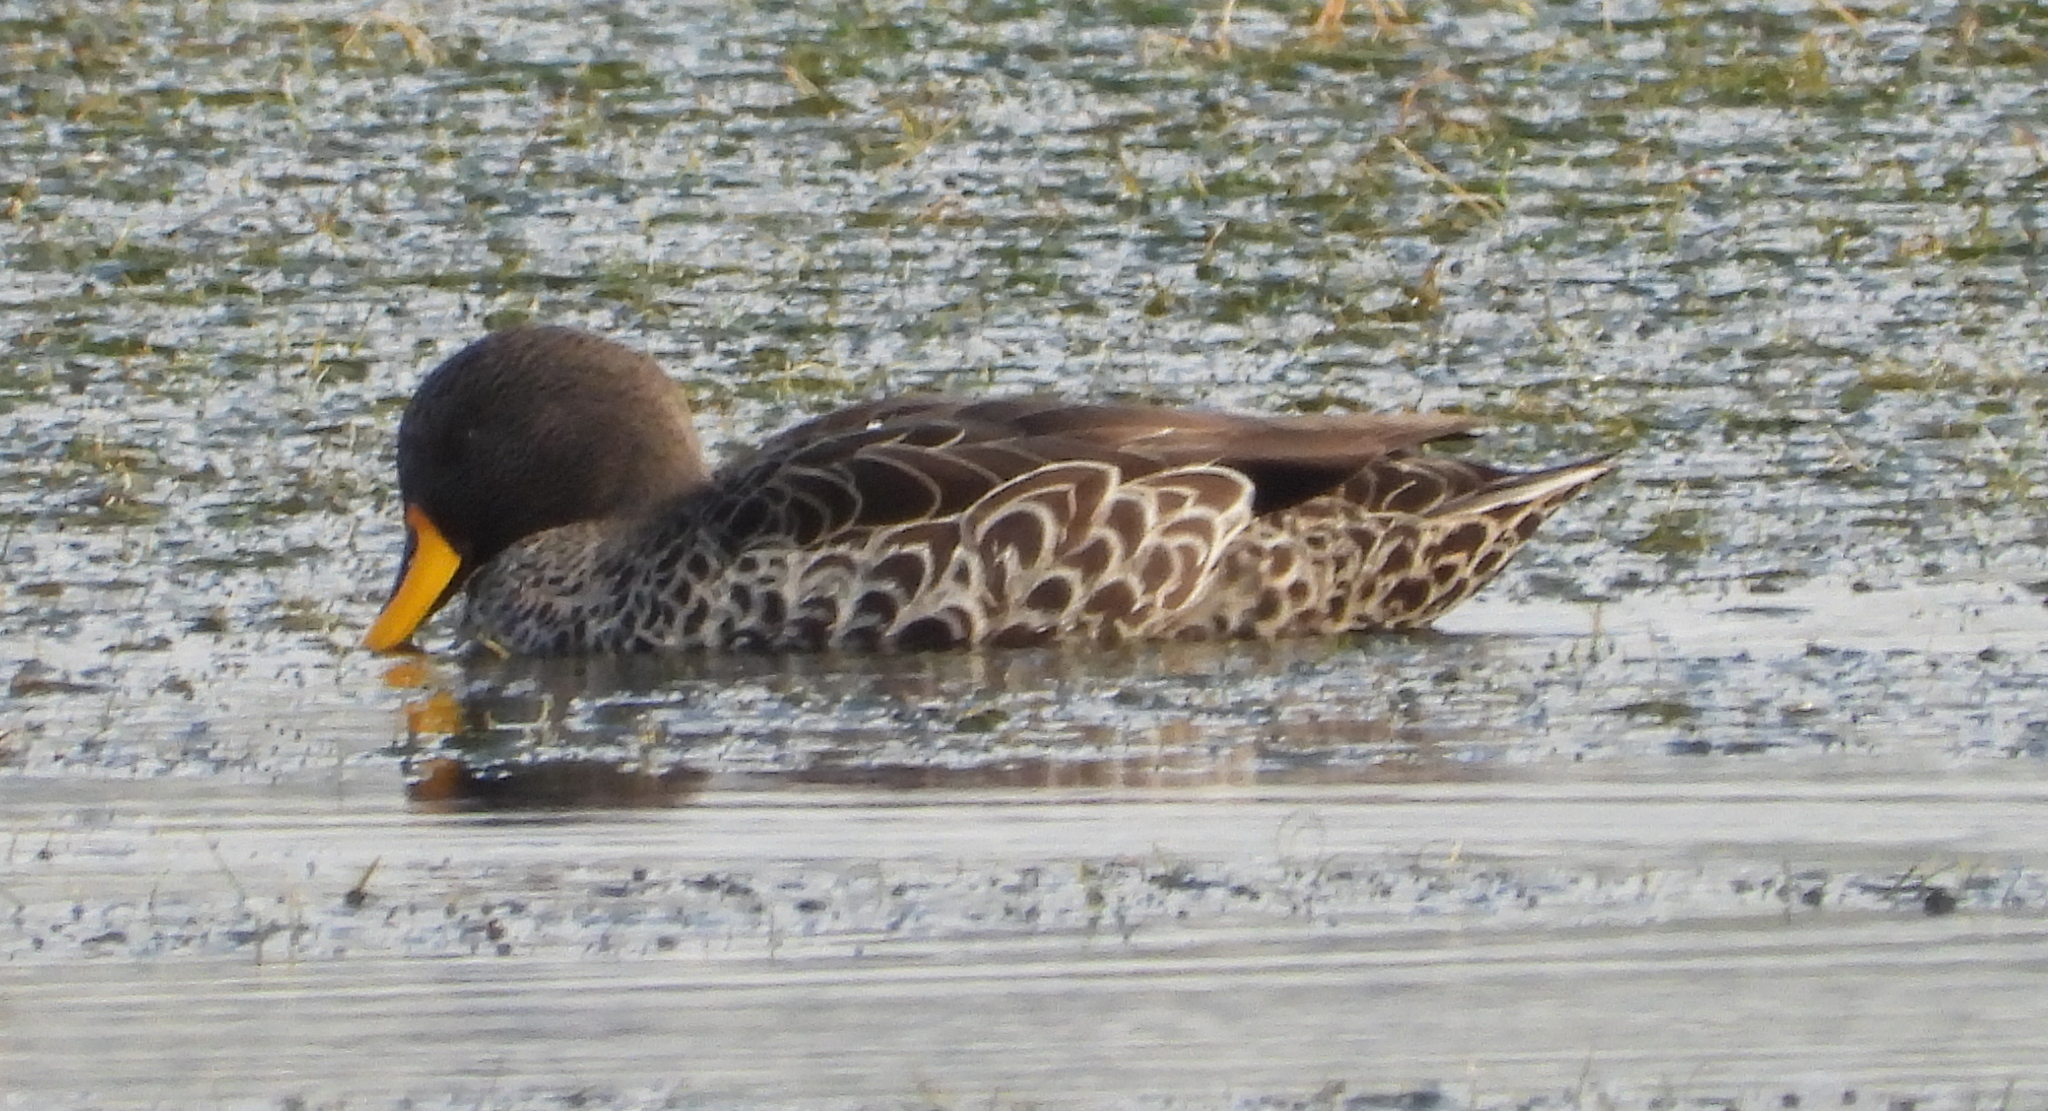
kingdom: Animalia
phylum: Chordata
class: Aves
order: Anseriformes
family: Anatidae
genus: Anas
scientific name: Anas undulata
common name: Yellow-billed duck
